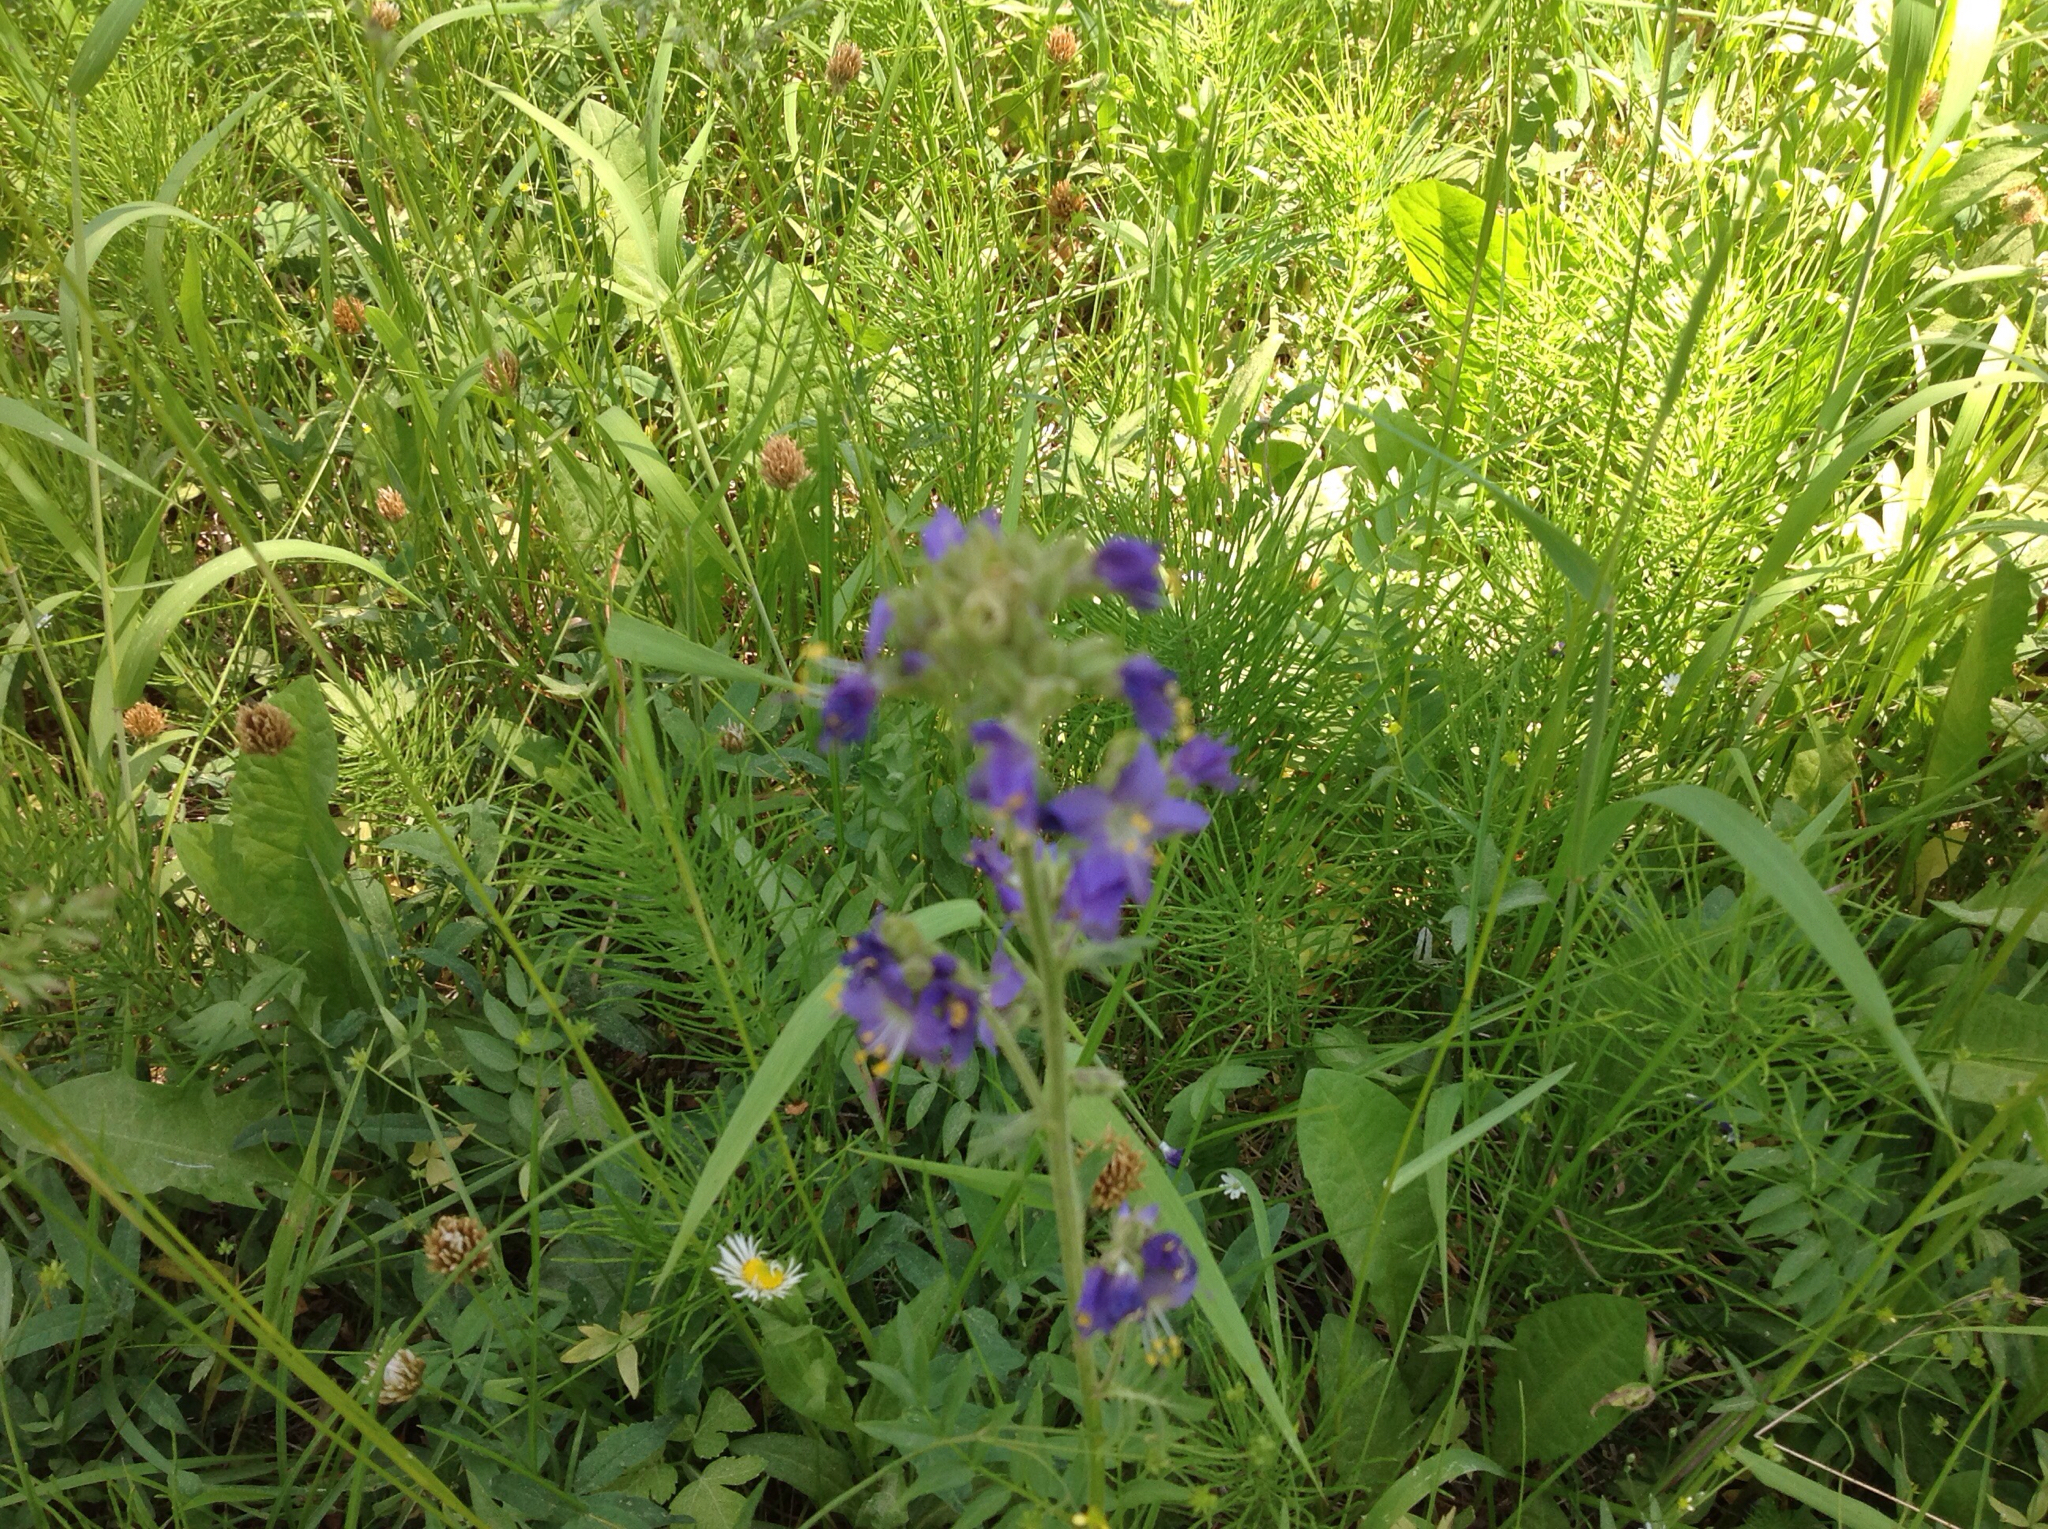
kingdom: Plantae
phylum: Tracheophyta
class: Magnoliopsida
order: Ericales
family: Polemoniaceae
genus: Polemonium
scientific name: Polemonium occidentale
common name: Western jacob's-ladder
